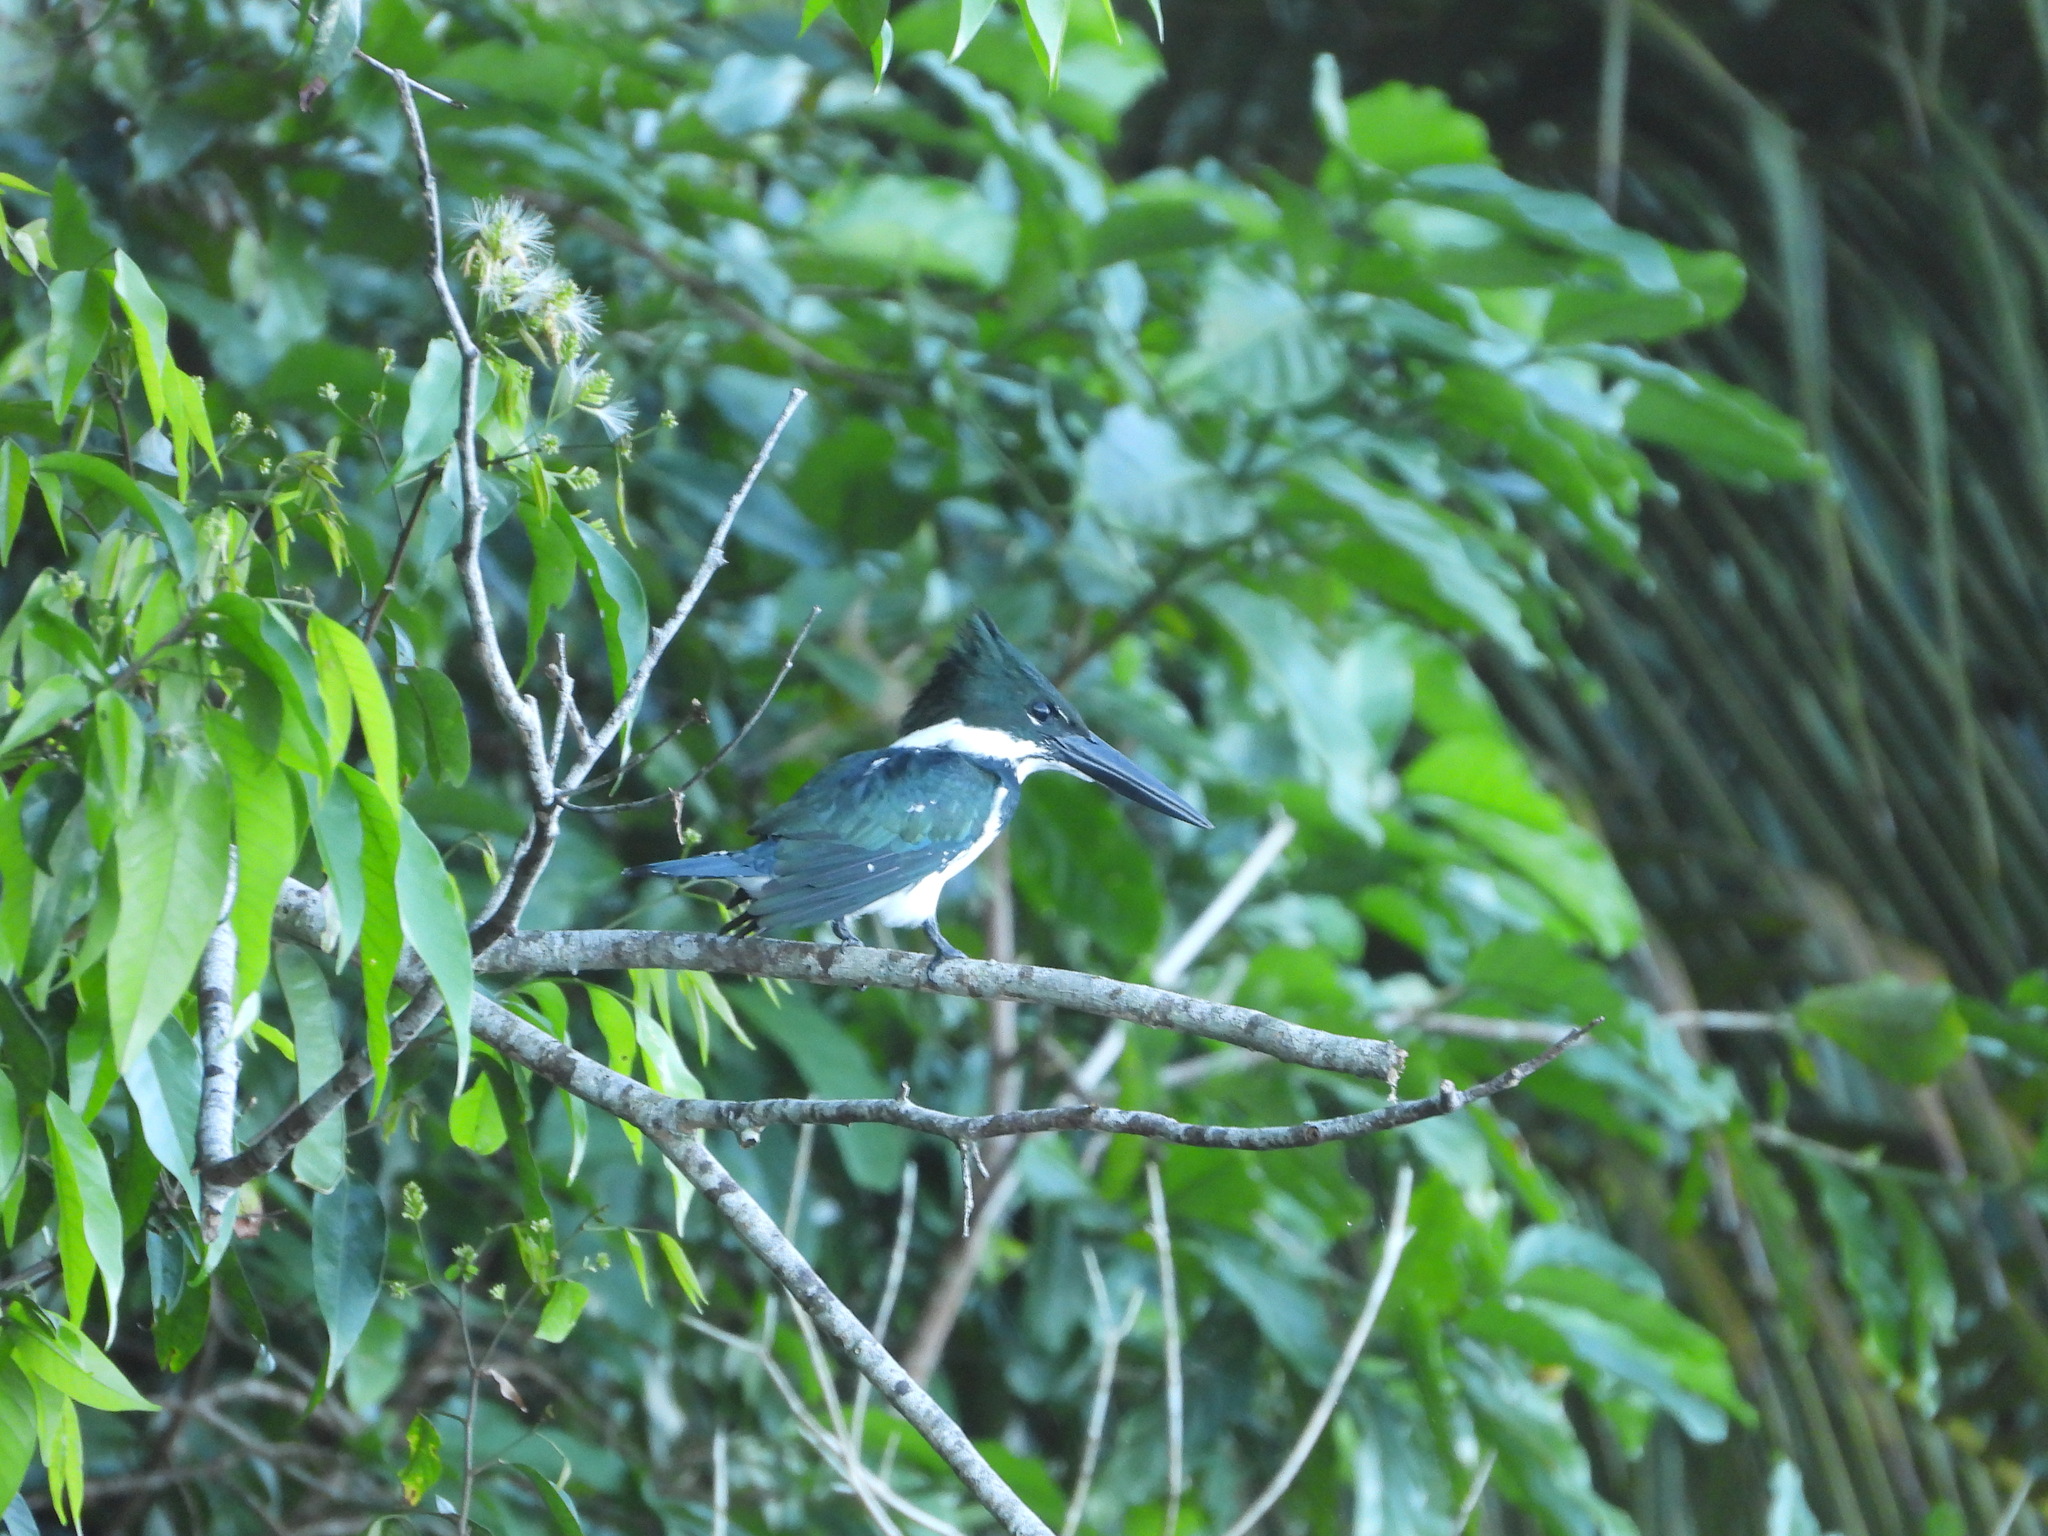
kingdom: Animalia
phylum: Chordata
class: Aves
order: Coraciiformes
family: Alcedinidae
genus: Chloroceryle
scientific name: Chloroceryle amazona
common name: Amazon kingfisher
